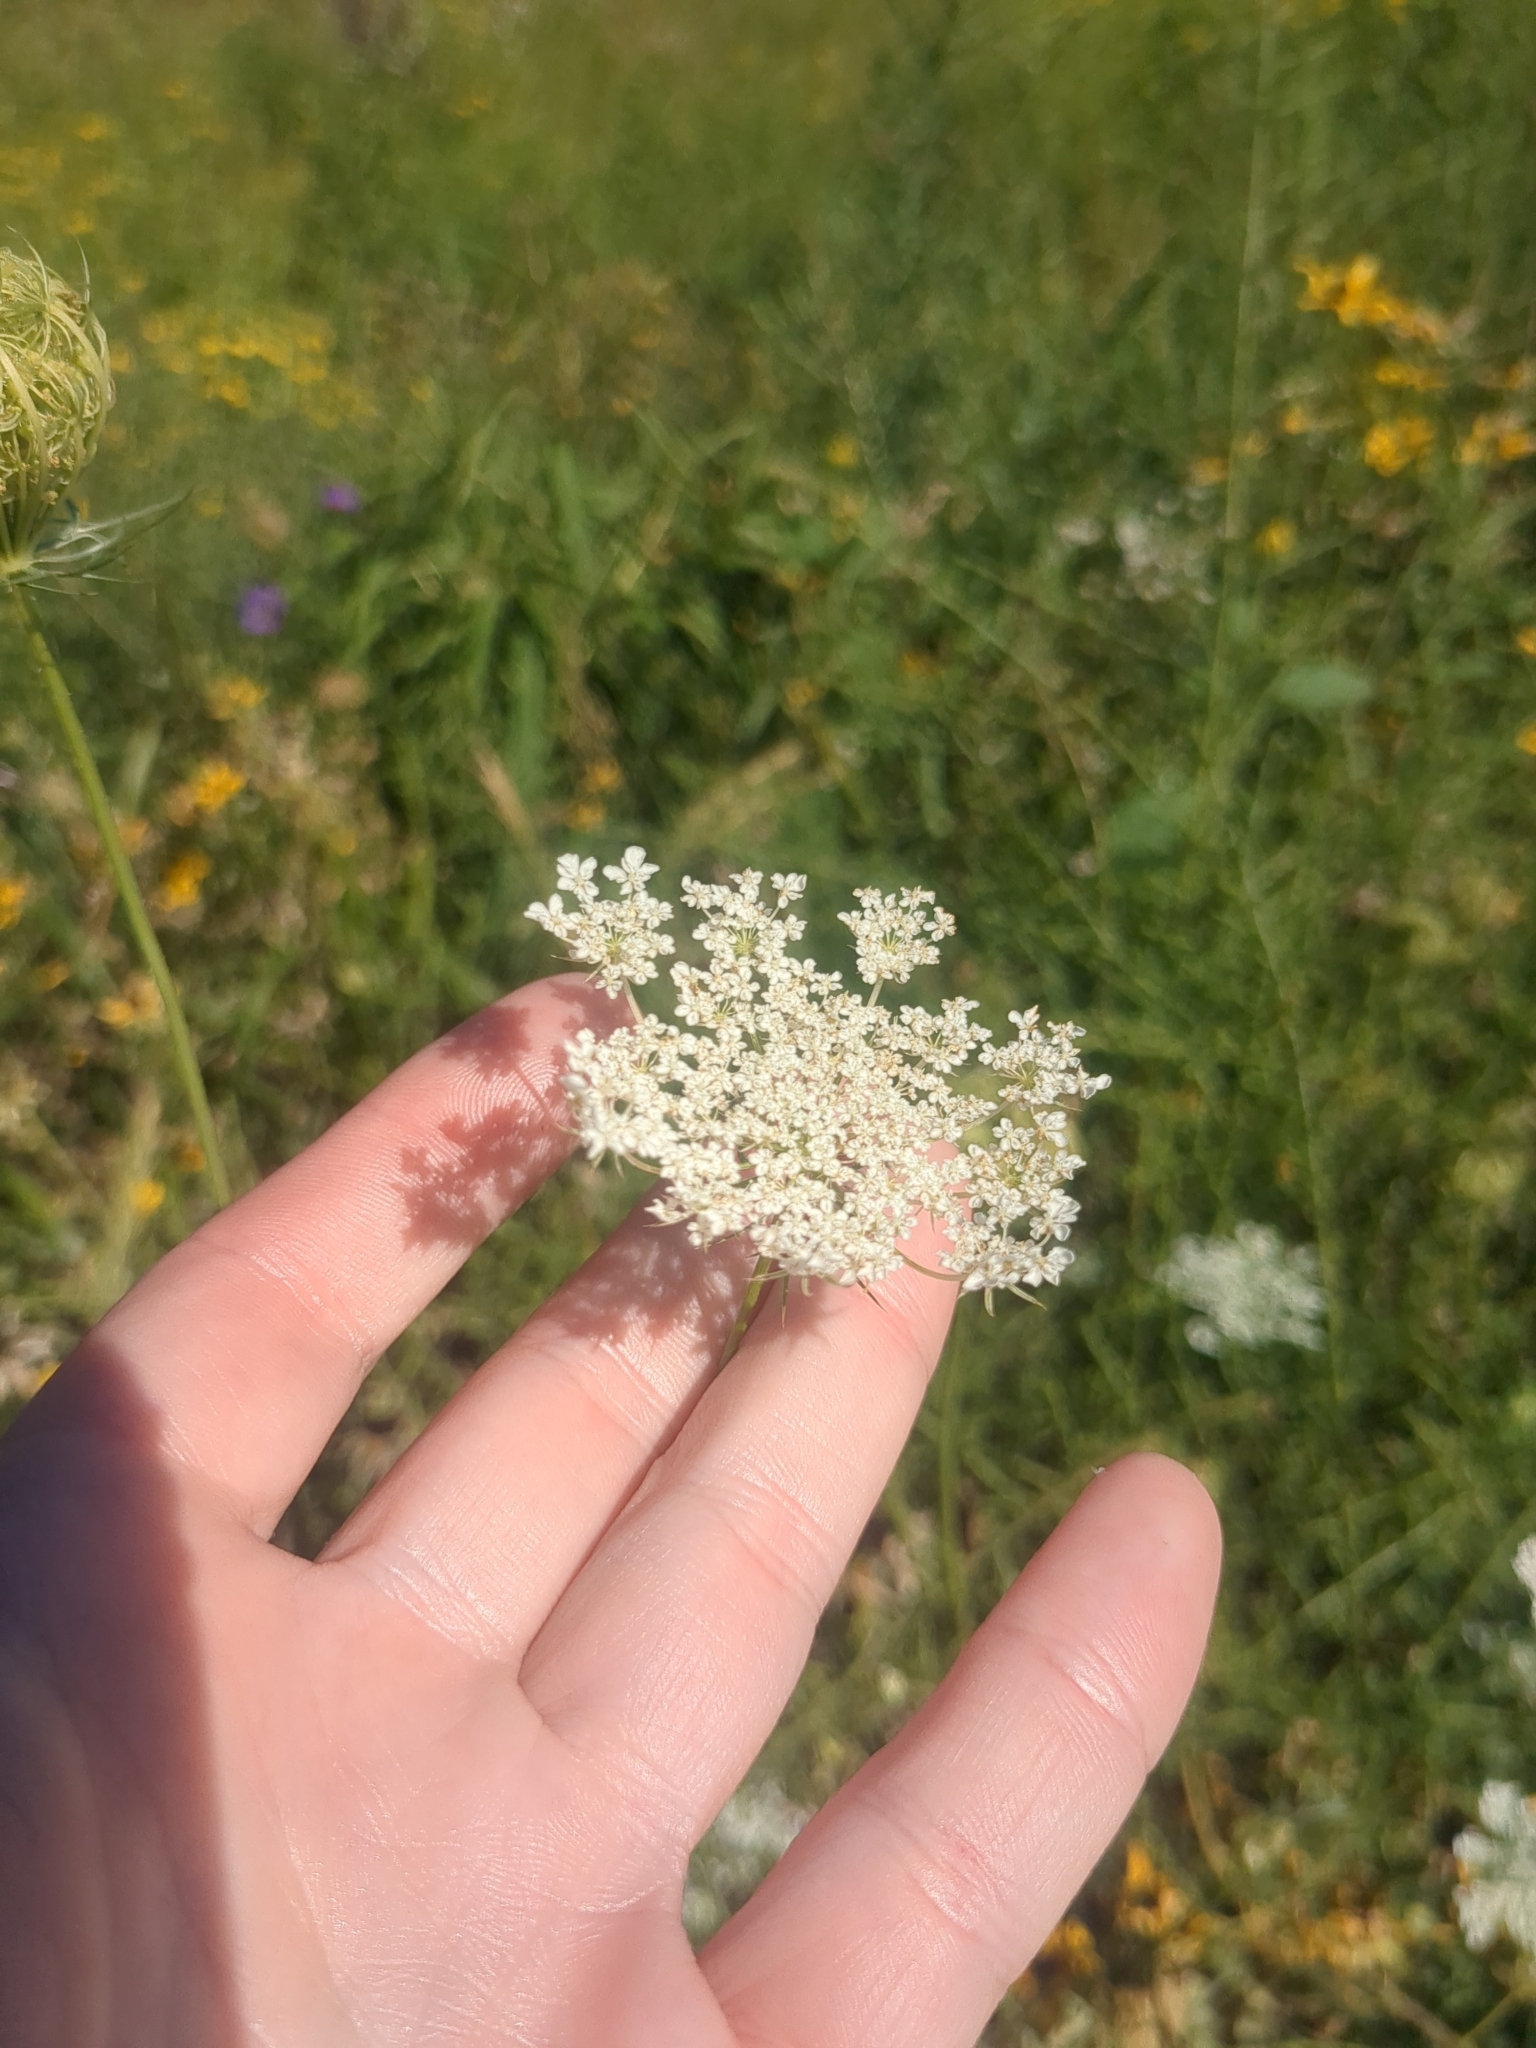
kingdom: Plantae
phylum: Tracheophyta
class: Magnoliopsida
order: Apiales
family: Apiaceae
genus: Daucus
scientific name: Daucus carota
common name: Wild carrot
